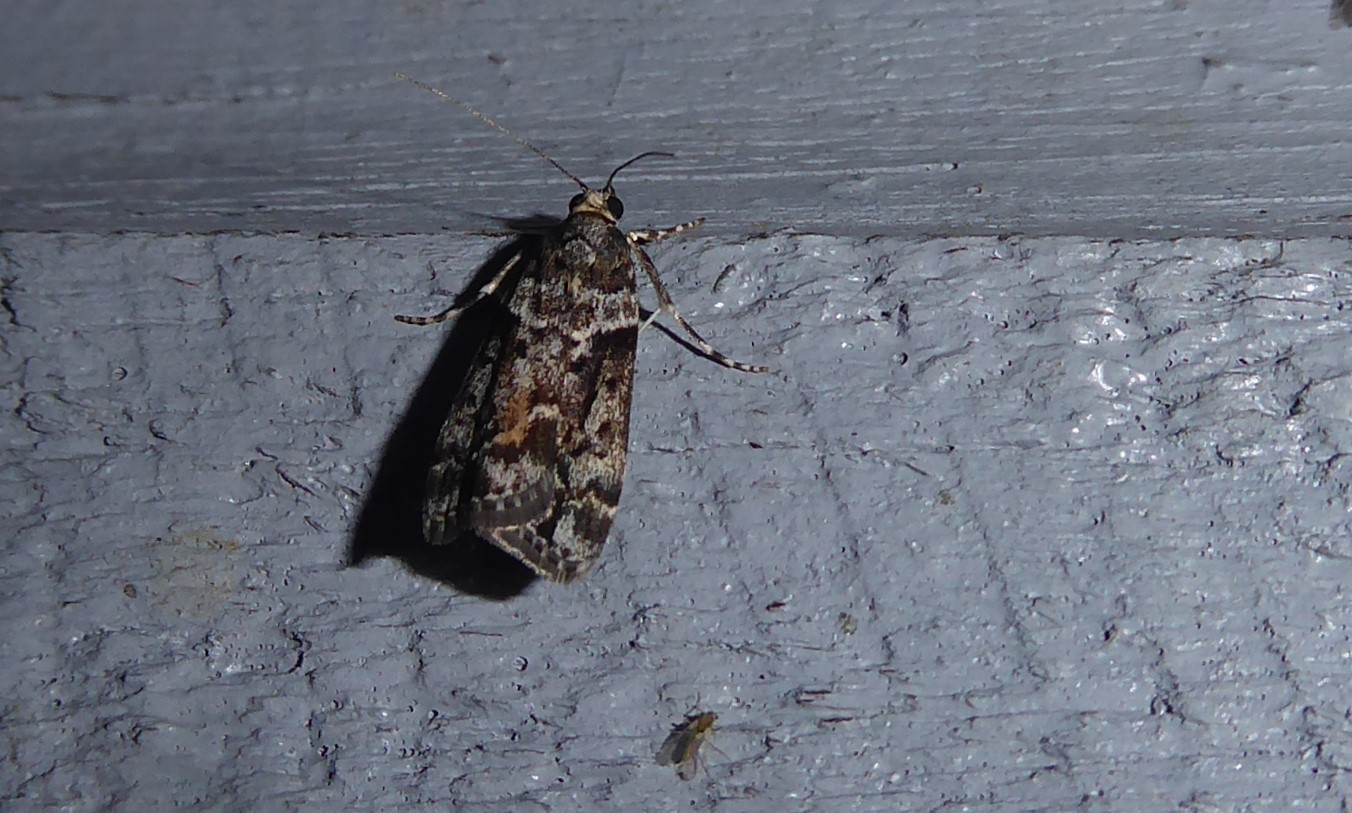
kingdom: Animalia
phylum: Arthropoda
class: Insecta
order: Lepidoptera
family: Crambidae
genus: Eudonia
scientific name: Eudonia submarginalis
